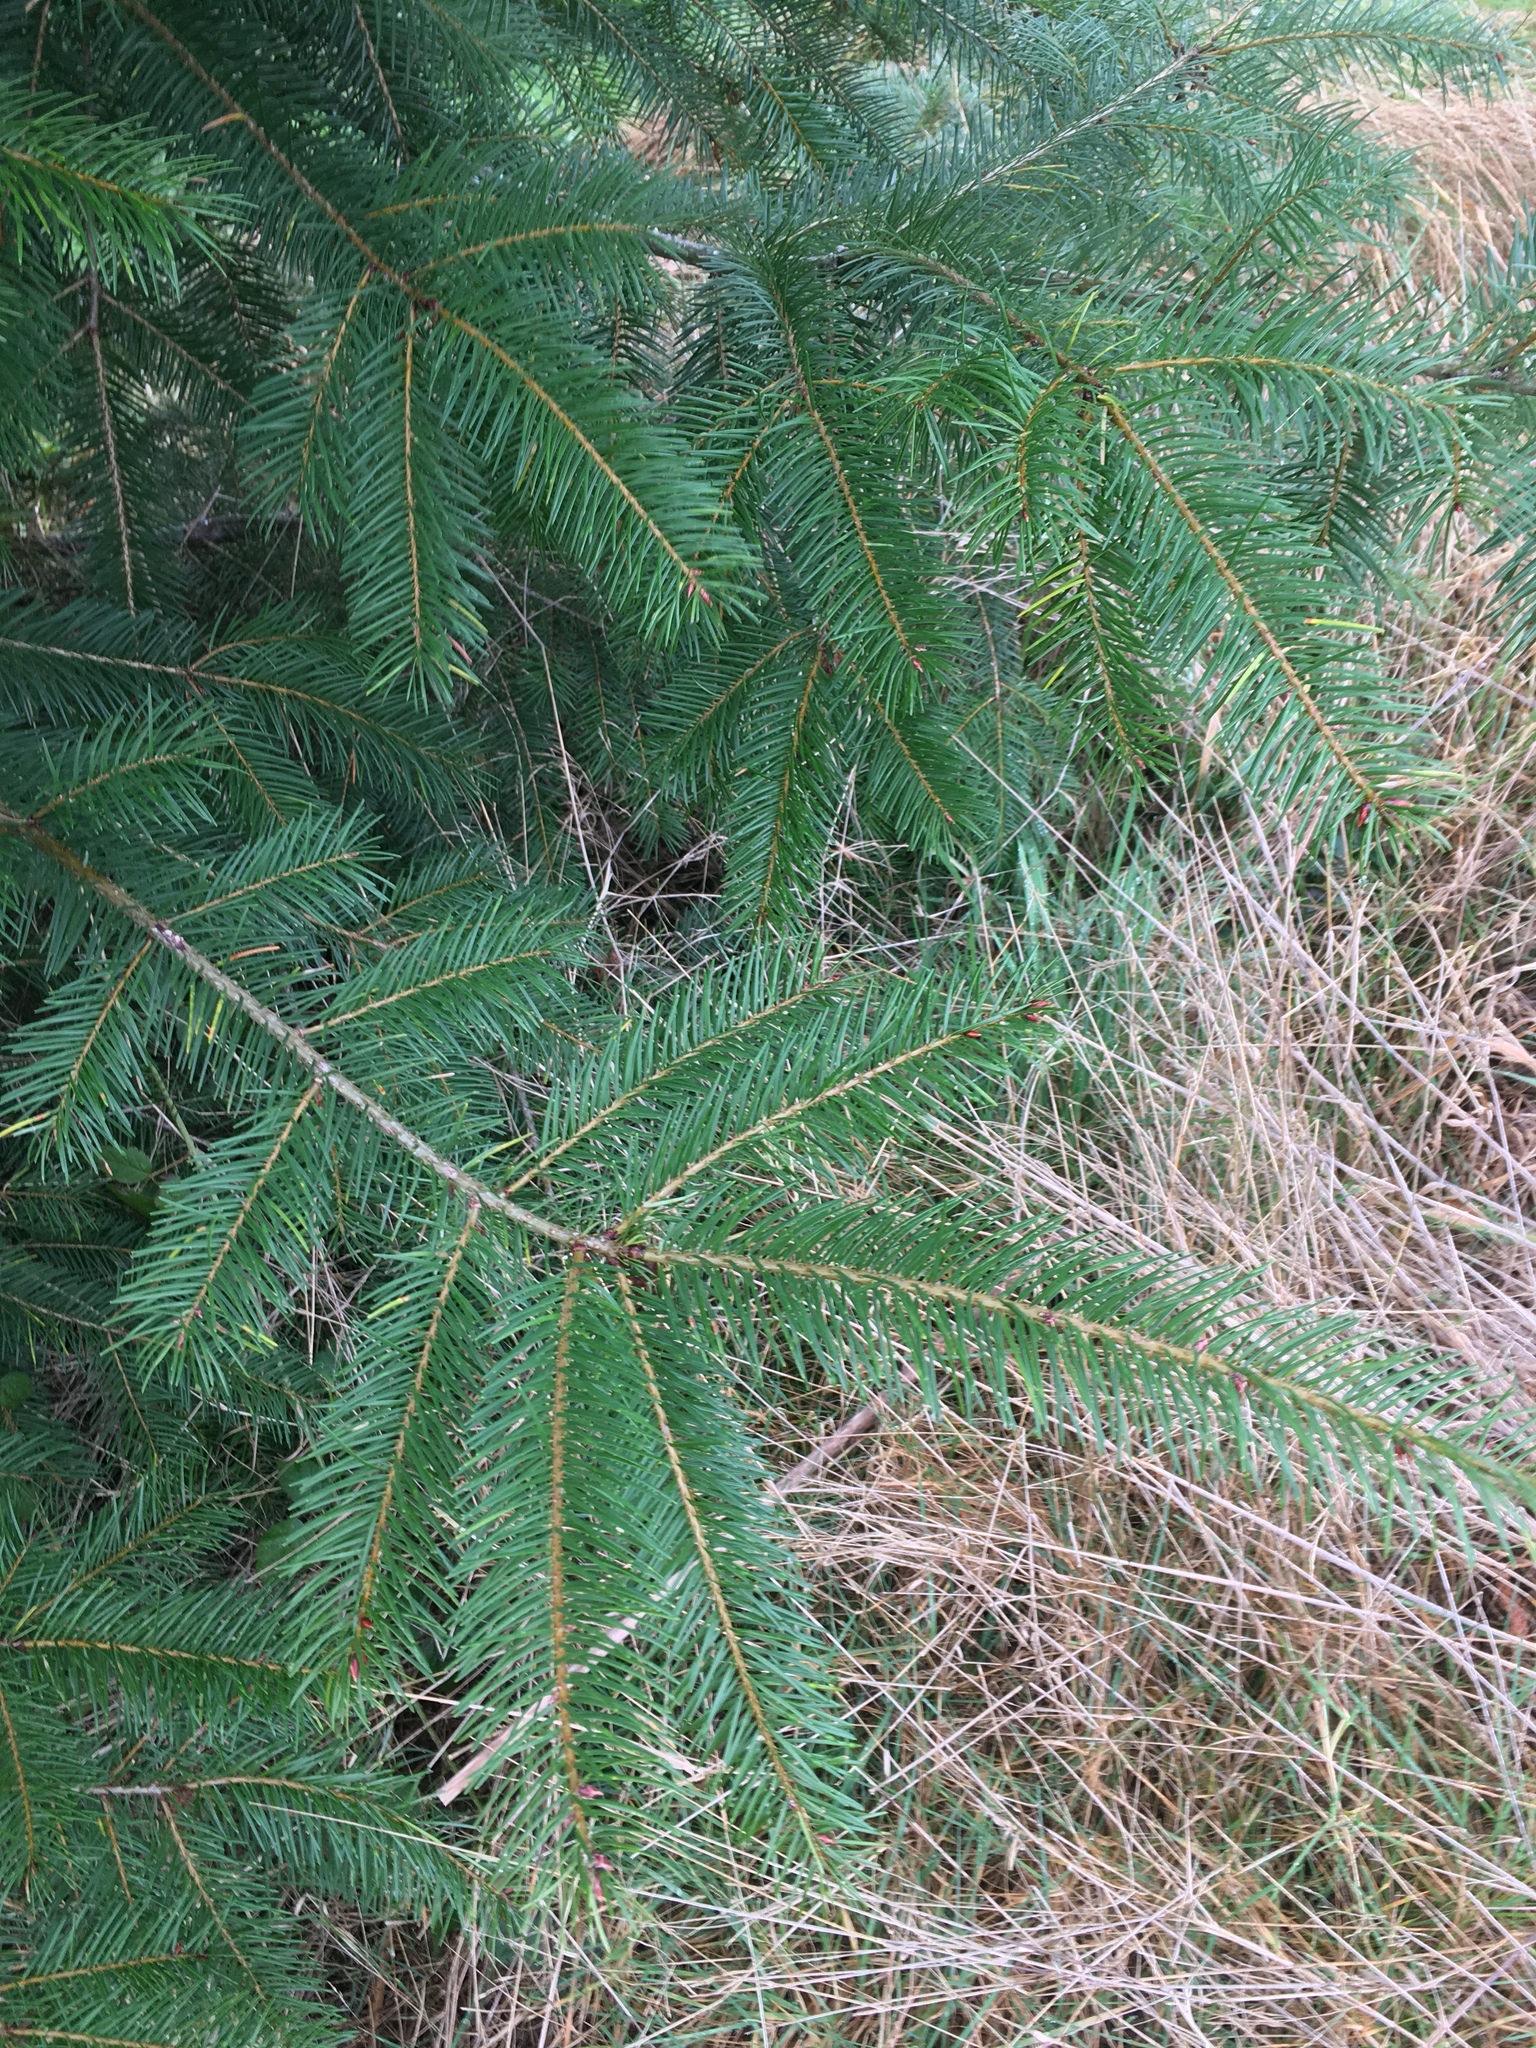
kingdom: Plantae
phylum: Tracheophyta
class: Pinopsida
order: Pinales
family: Pinaceae
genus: Pseudotsuga
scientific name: Pseudotsuga menziesii
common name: Douglas fir
